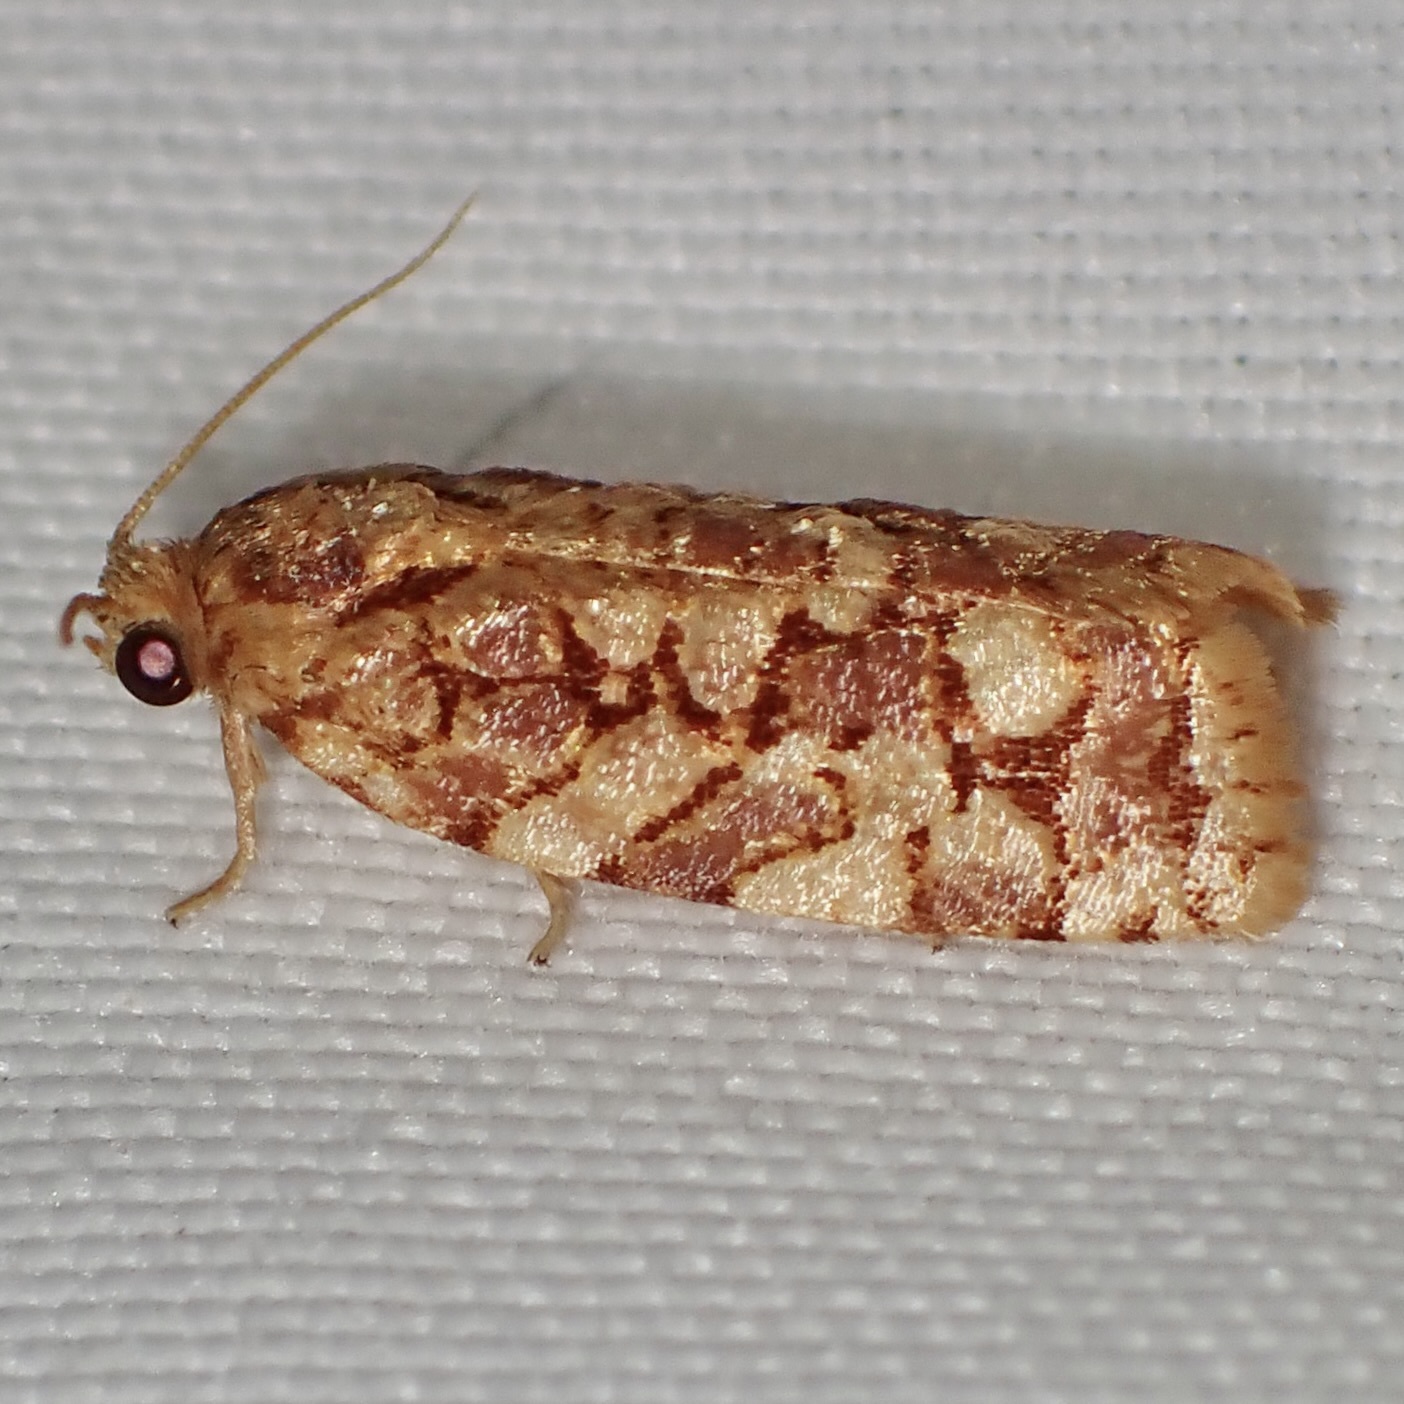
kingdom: Animalia
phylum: Arthropoda
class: Insecta
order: Lepidoptera
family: Tortricidae
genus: Choristoneura
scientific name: Choristoneura houstonana
